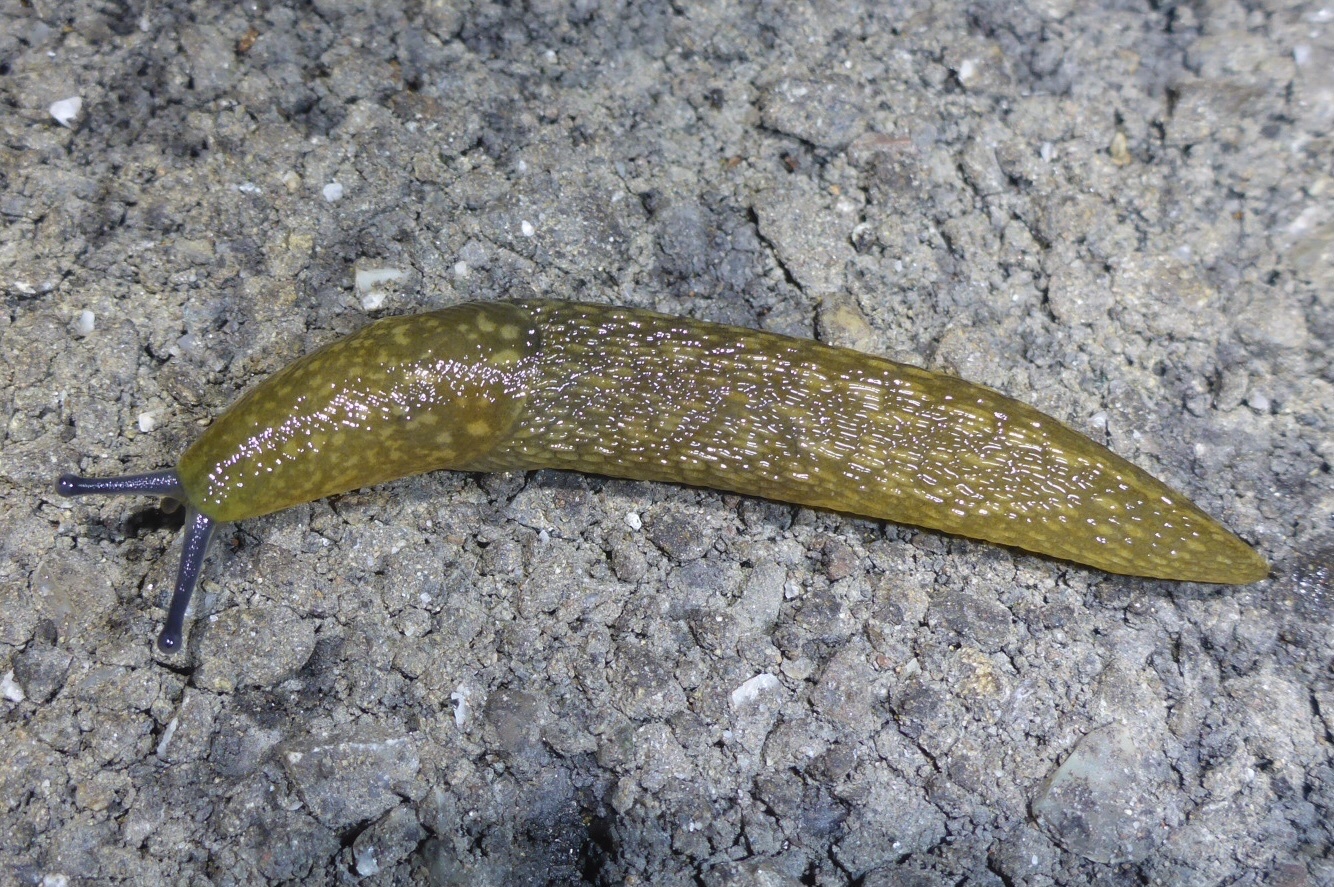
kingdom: Animalia
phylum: Mollusca
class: Gastropoda
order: Stylommatophora
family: Limacidae
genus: Limacus
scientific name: Limacus flavus
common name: Yellow gardenslug
